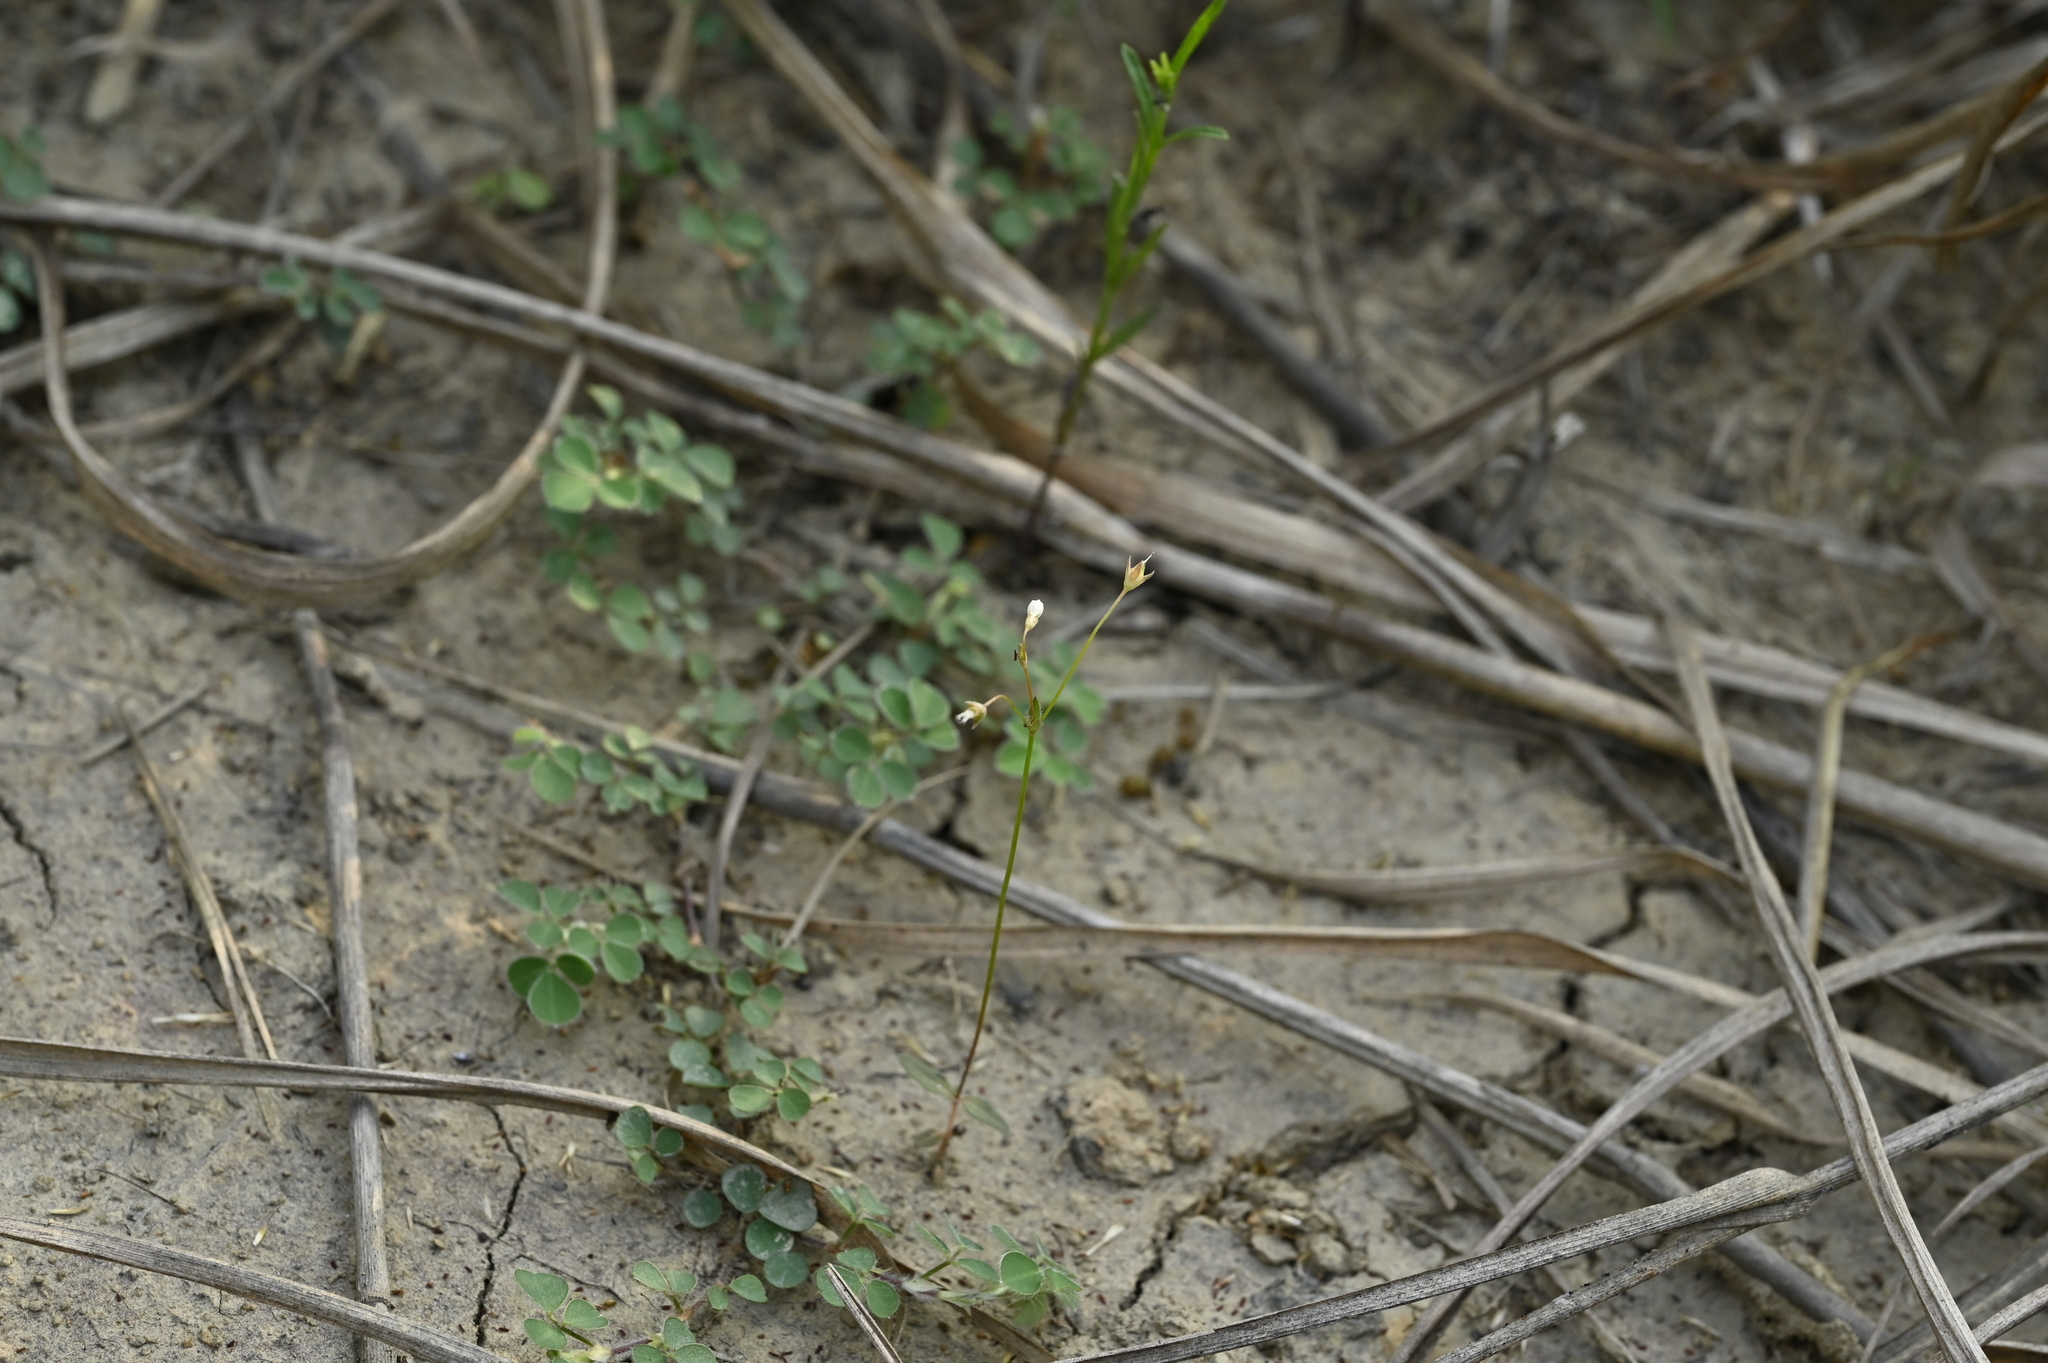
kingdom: Plantae
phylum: Tracheophyta
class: Magnoliopsida
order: Gentianales
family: Loganiaceae
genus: Mitrasacme
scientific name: Mitrasacme pygmaea
